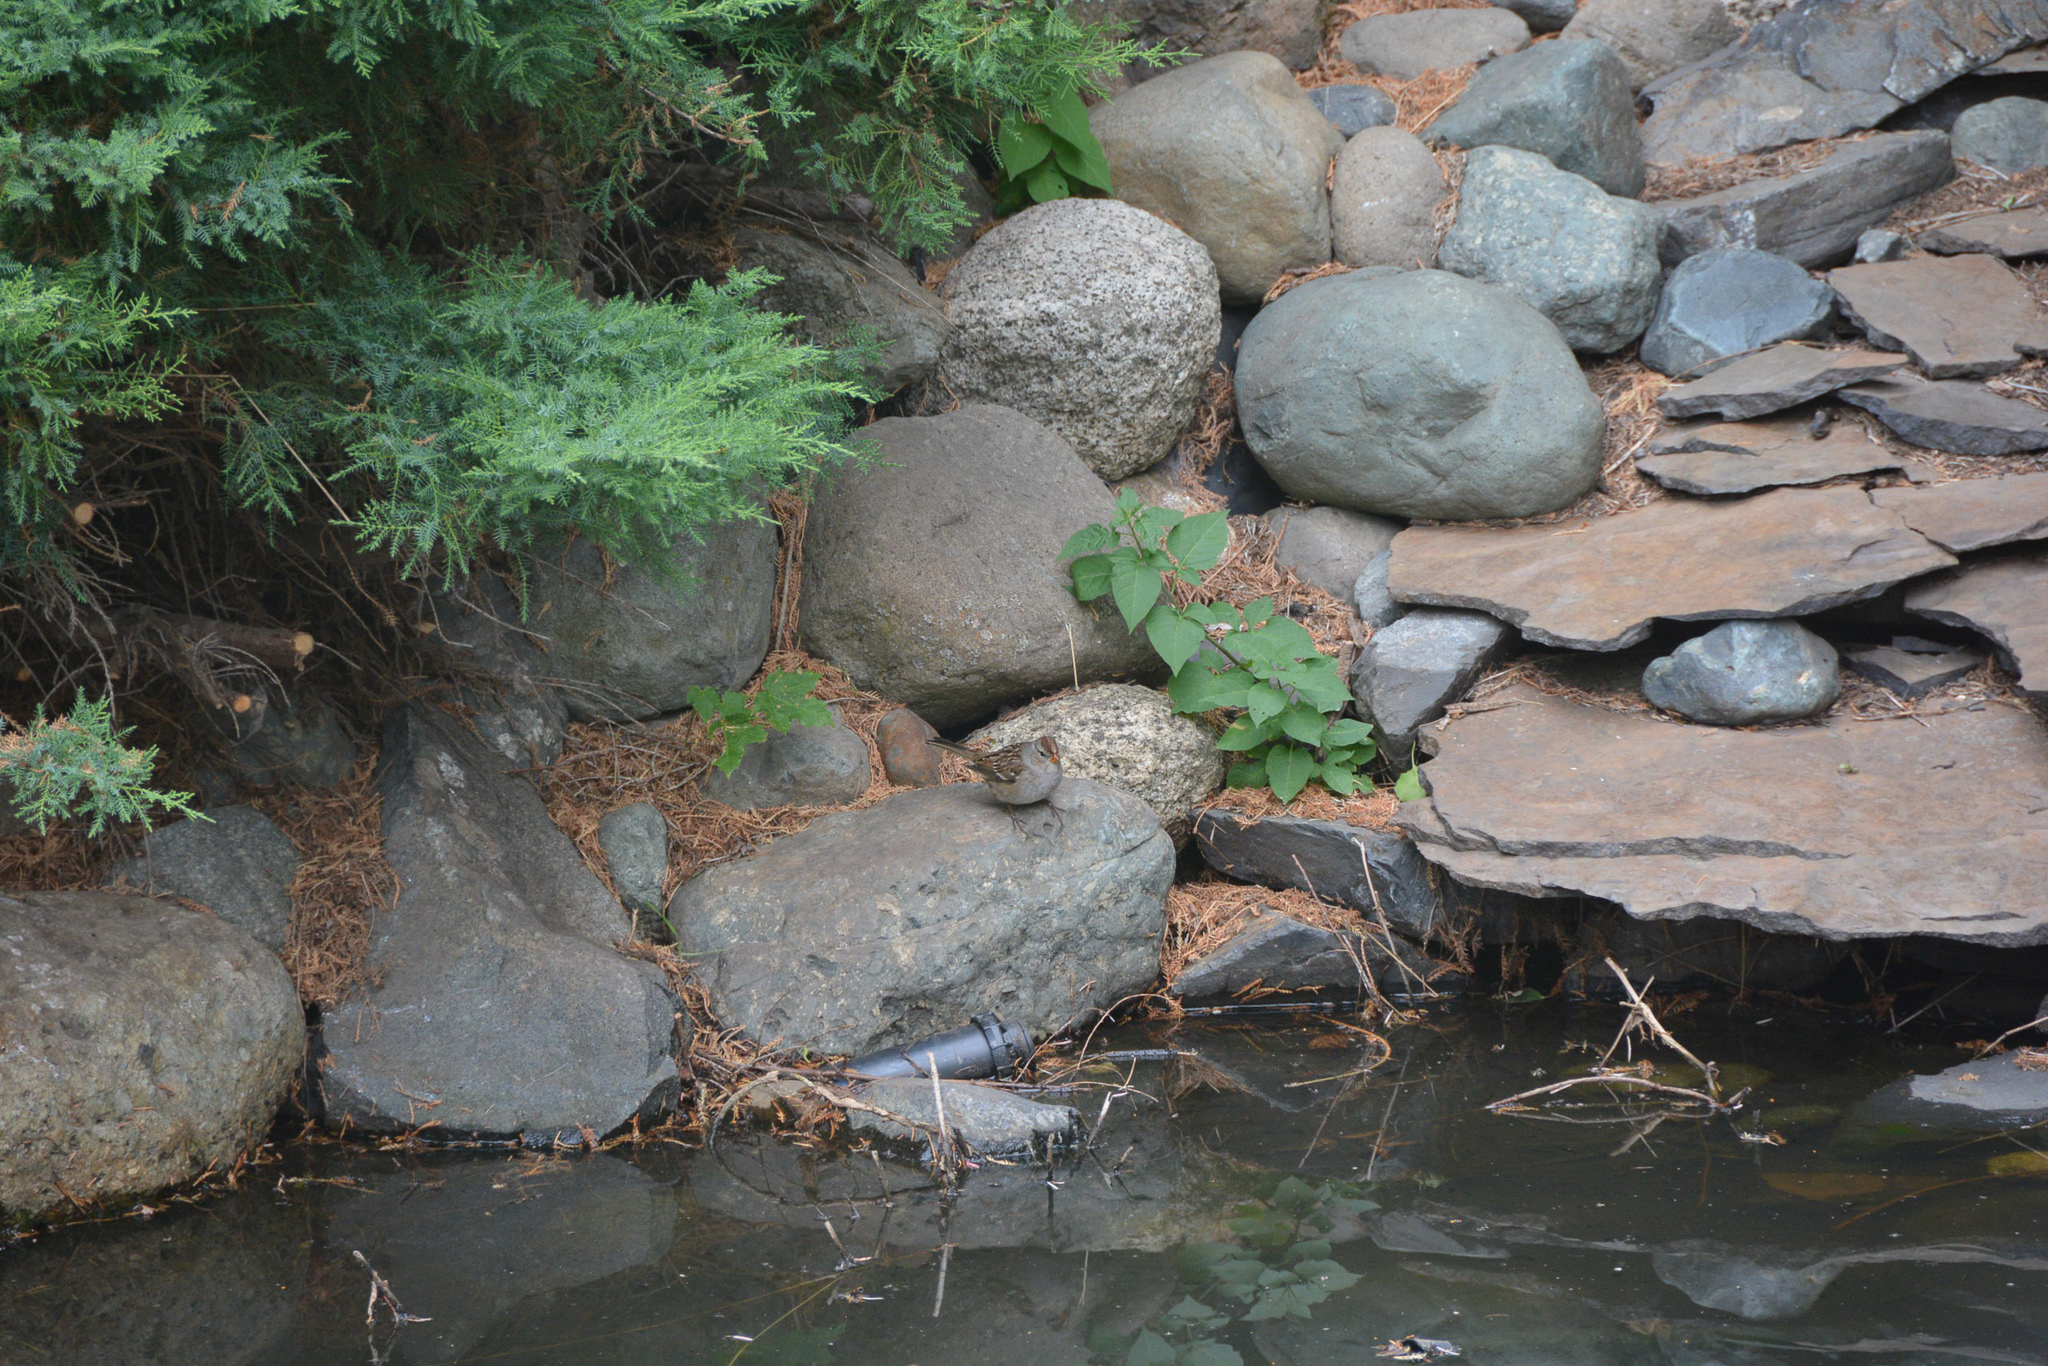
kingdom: Animalia
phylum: Chordata
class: Aves
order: Passeriformes
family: Passerellidae
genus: Zonotrichia
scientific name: Zonotrichia leucophrys
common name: White-crowned sparrow
